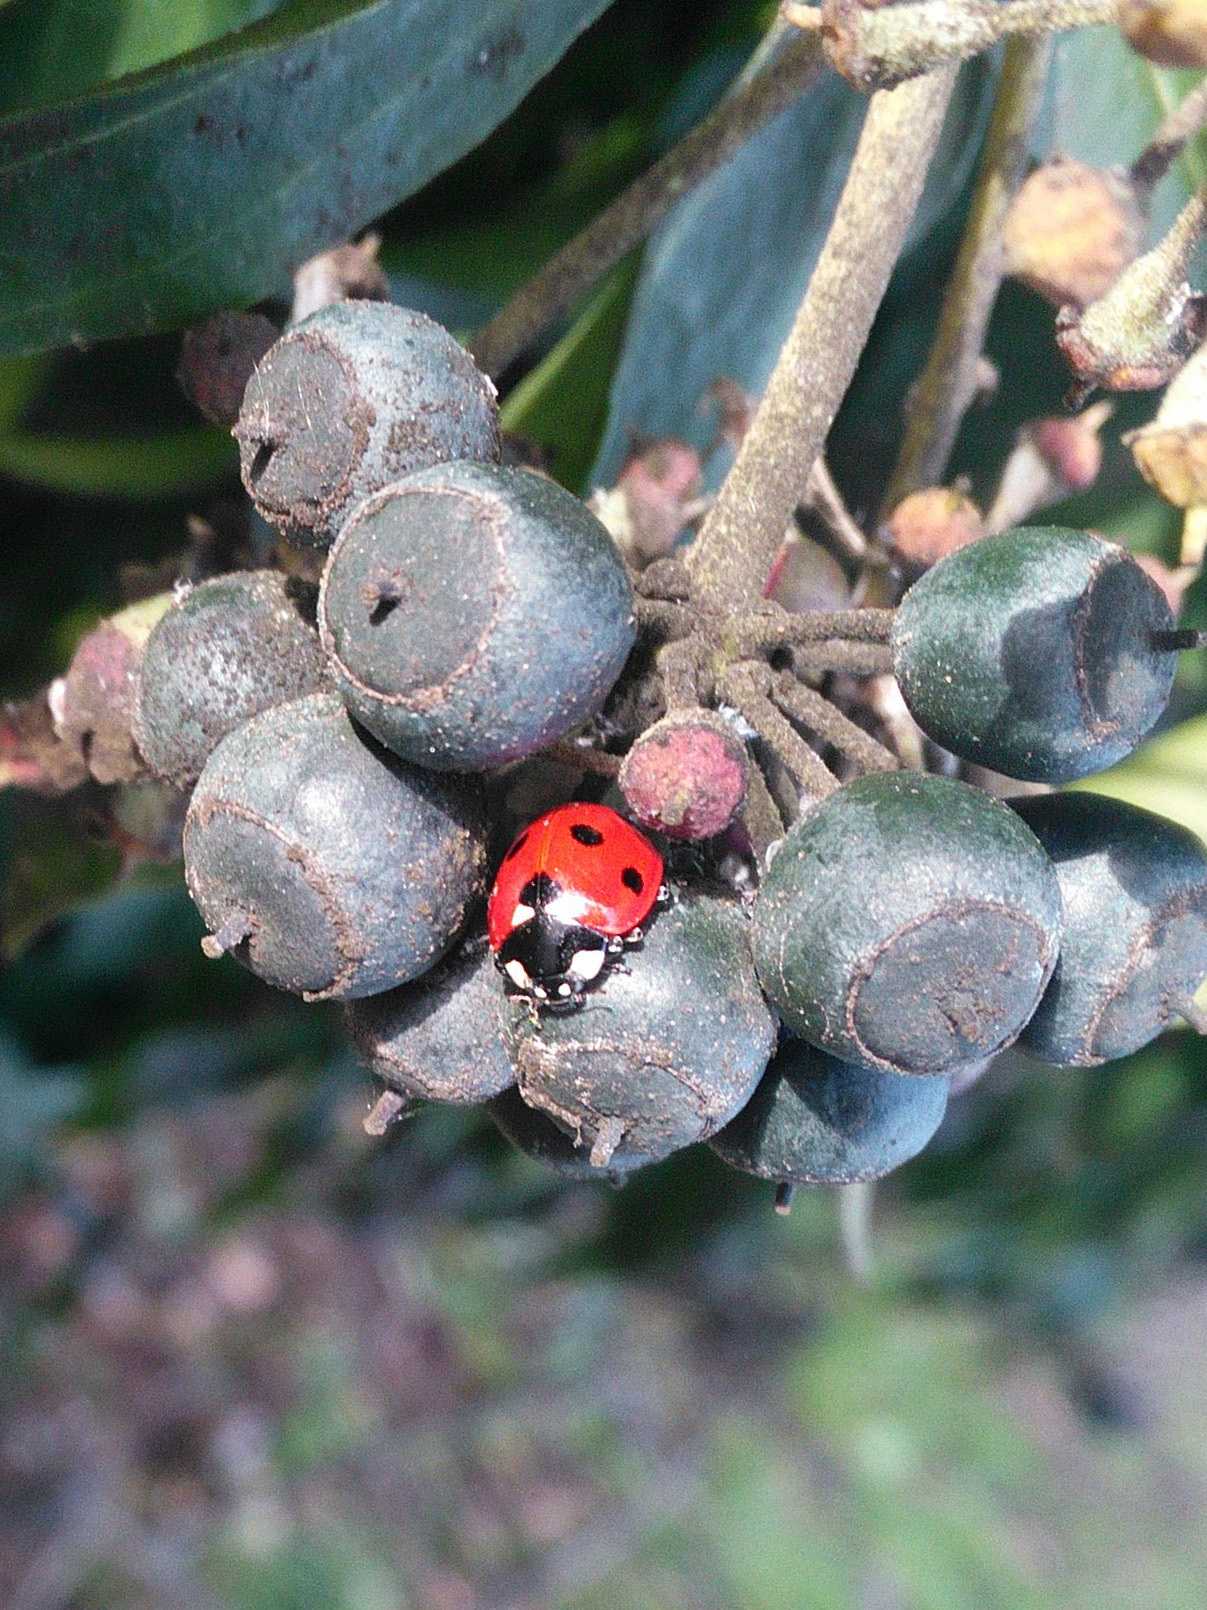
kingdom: Animalia
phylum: Arthropoda
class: Insecta
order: Coleoptera
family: Coccinellidae
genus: Coccinella
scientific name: Coccinella septempunctata
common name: Sevenspotted lady beetle
